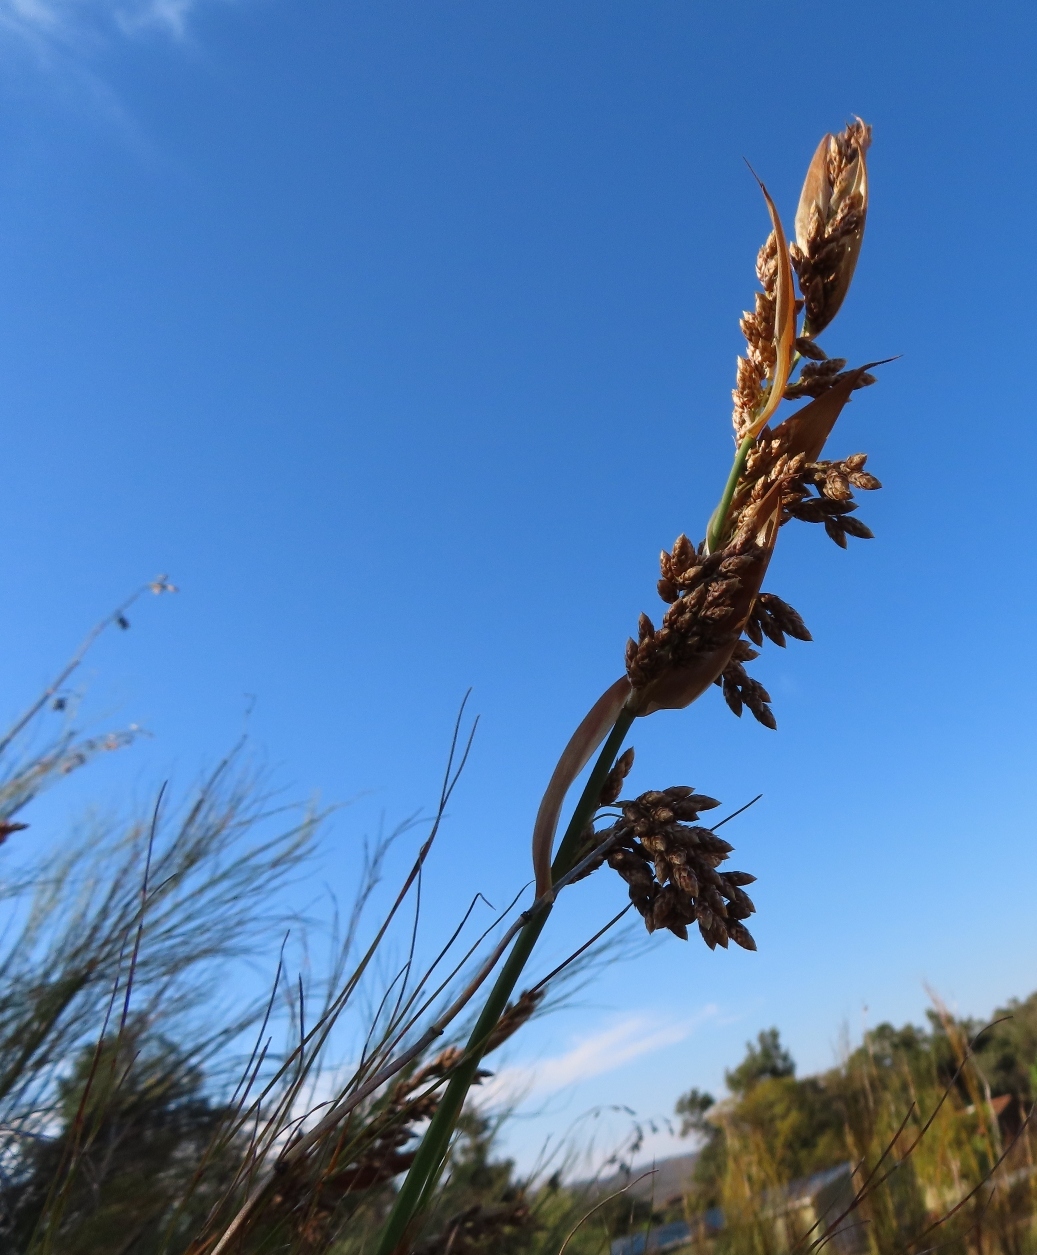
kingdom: Plantae
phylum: Tracheophyta
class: Liliopsida
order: Poales
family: Restionaceae
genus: Cannomois
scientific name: Cannomois robusta
